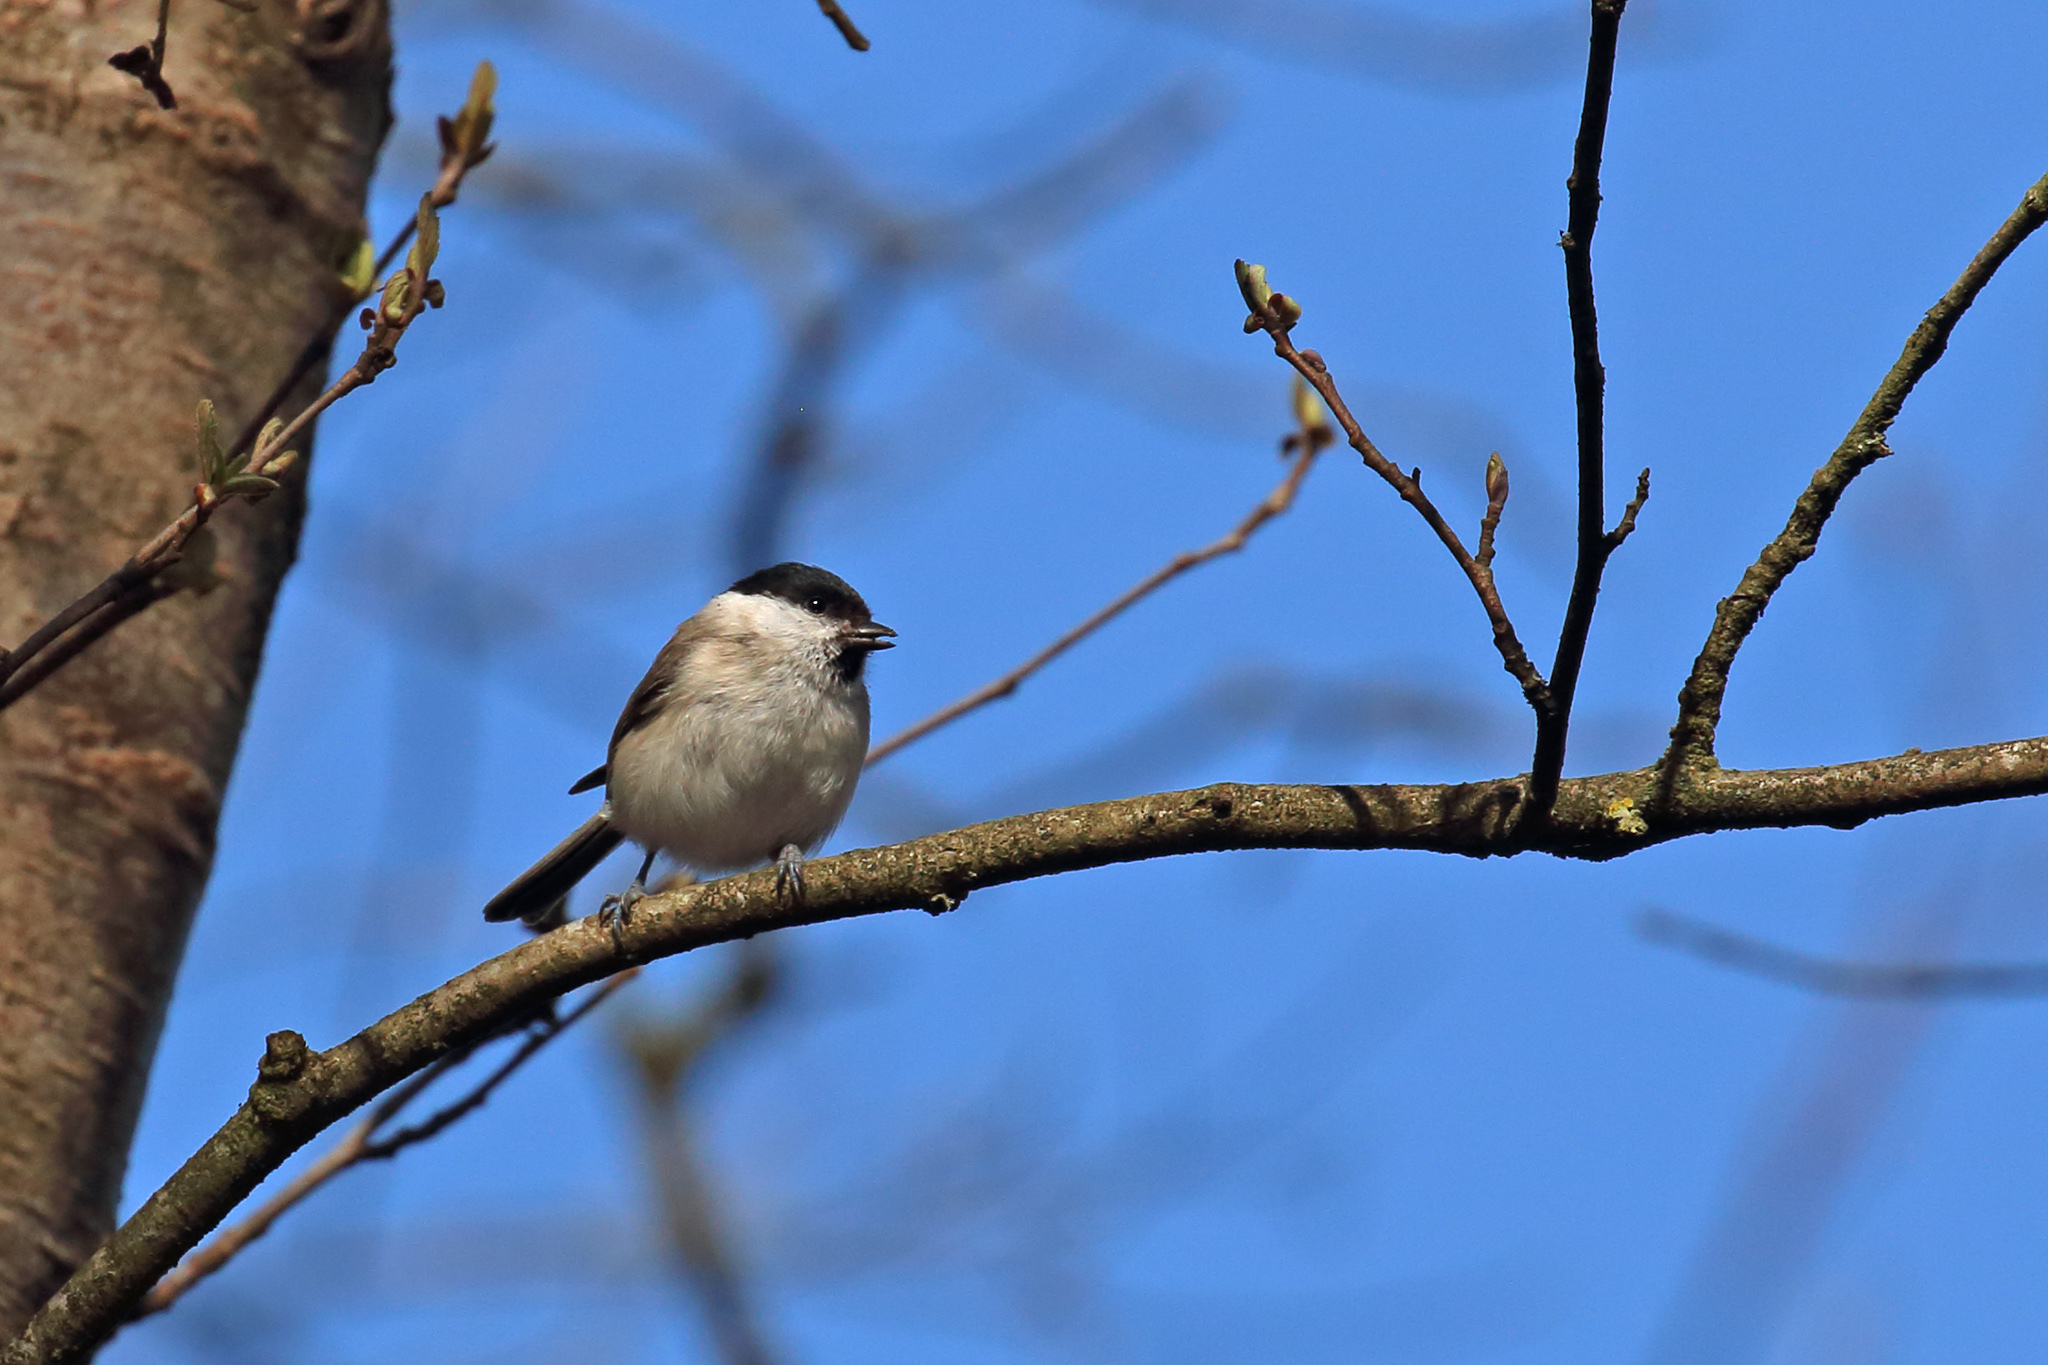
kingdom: Animalia
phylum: Chordata
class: Aves
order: Passeriformes
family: Paridae
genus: Poecile
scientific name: Poecile palustris
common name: Marsh tit
